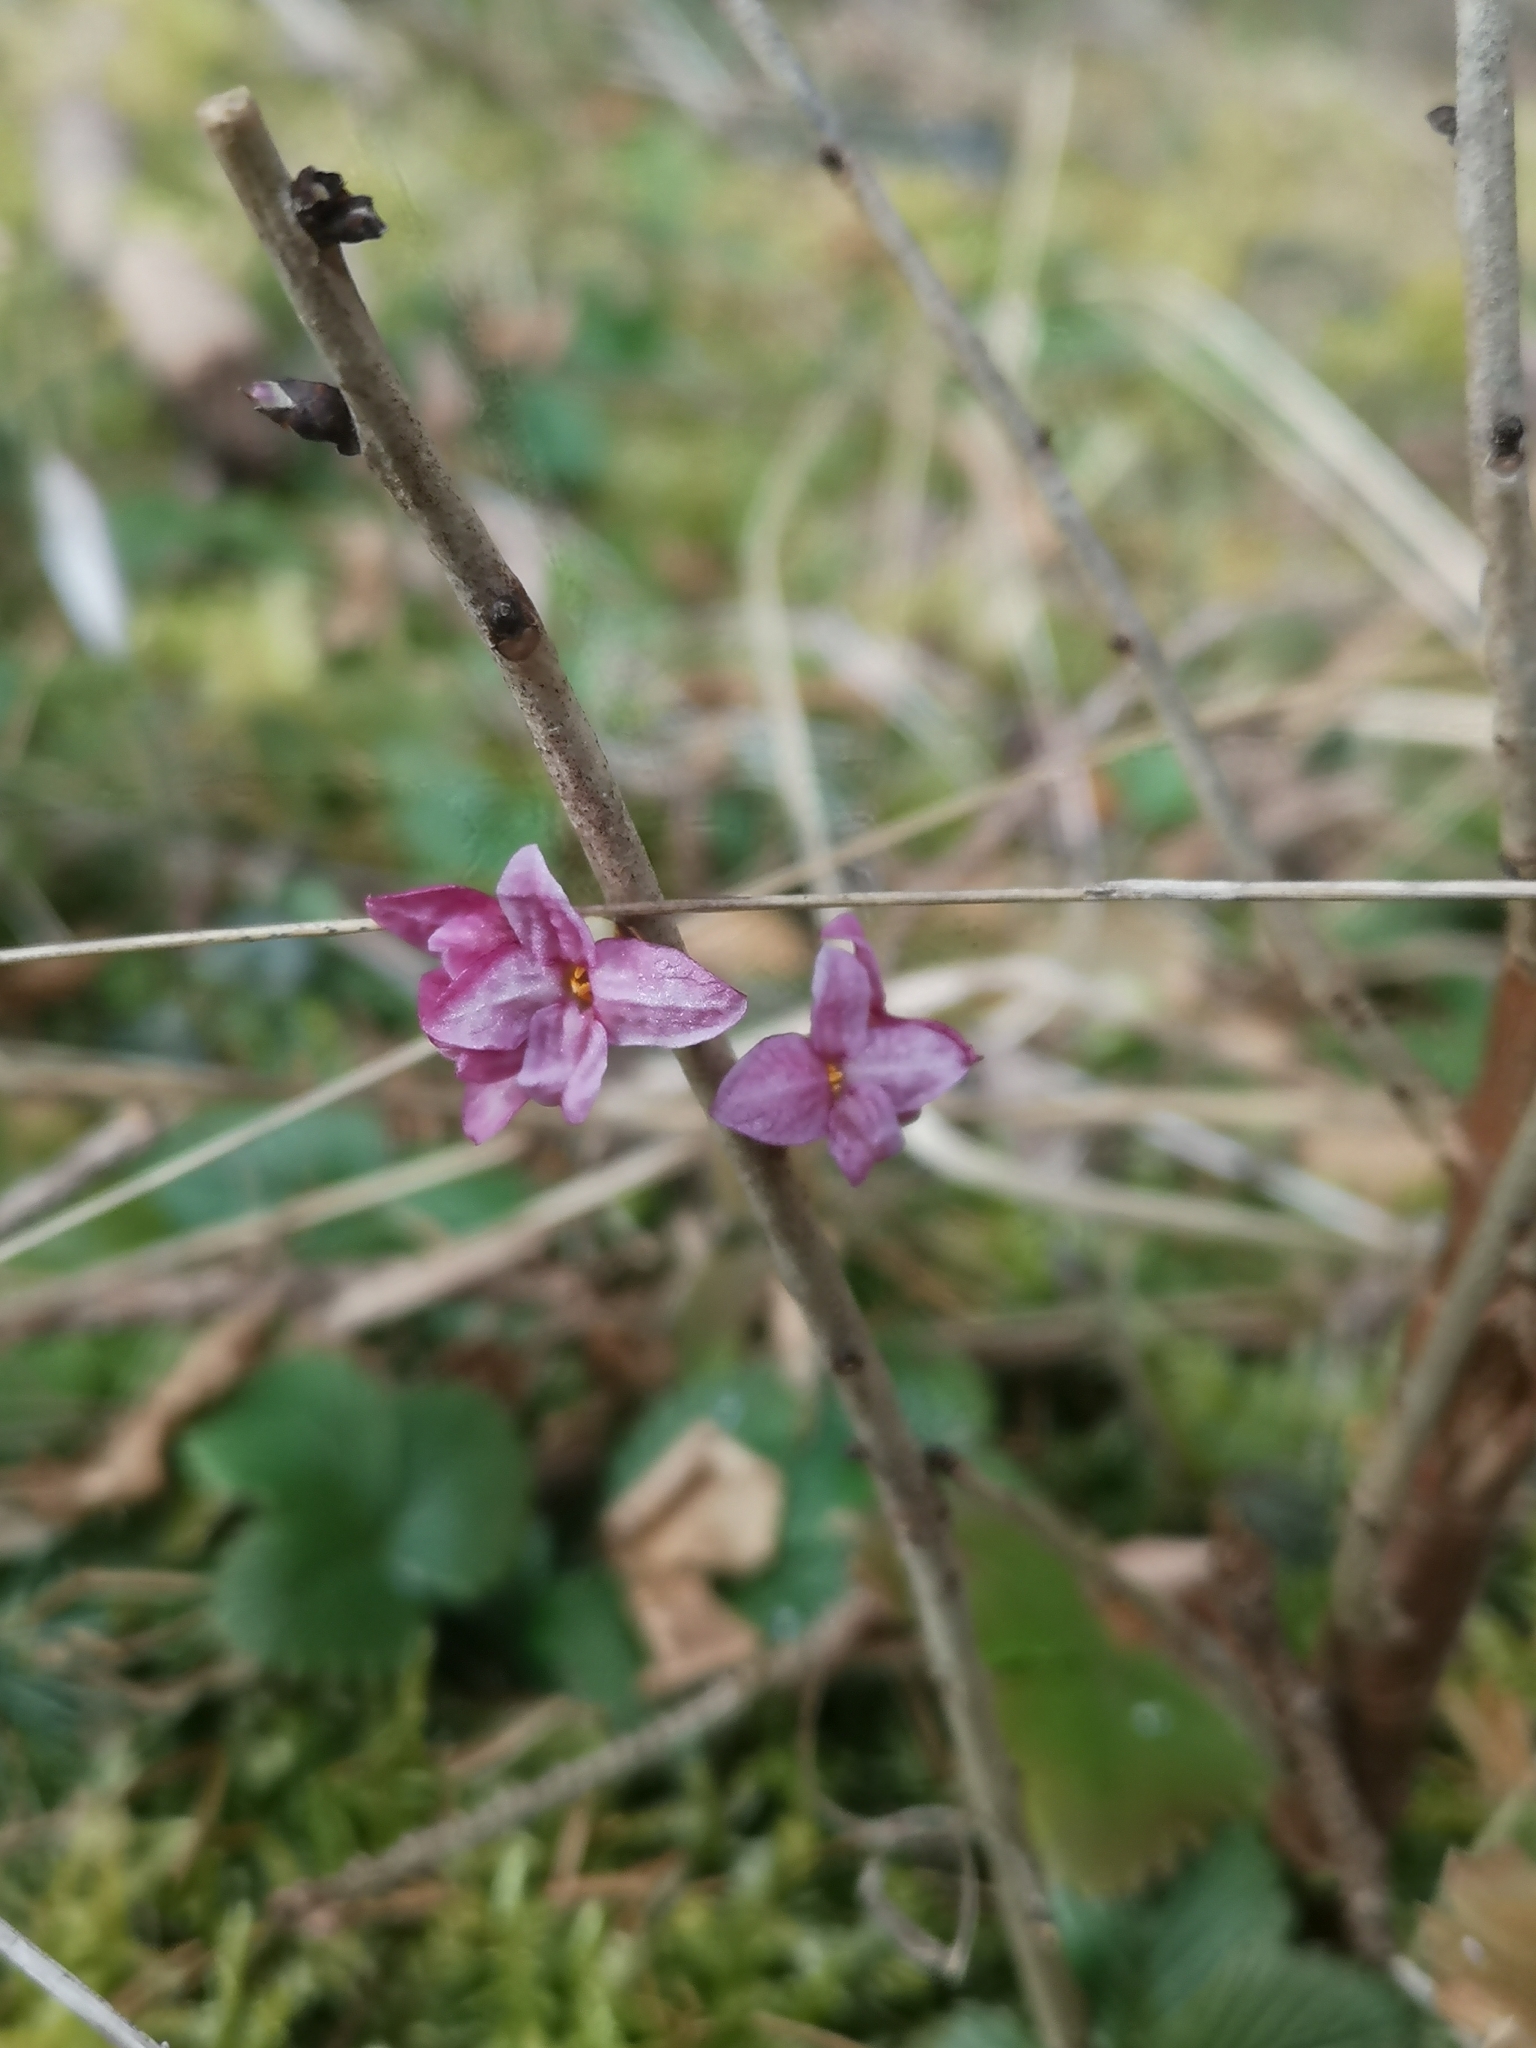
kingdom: Plantae
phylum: Tracheophyta
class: Magnoliopsida
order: Malvales
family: Thymelaeaceae
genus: Daphne
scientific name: Daphne mezereum
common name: Mezereon
